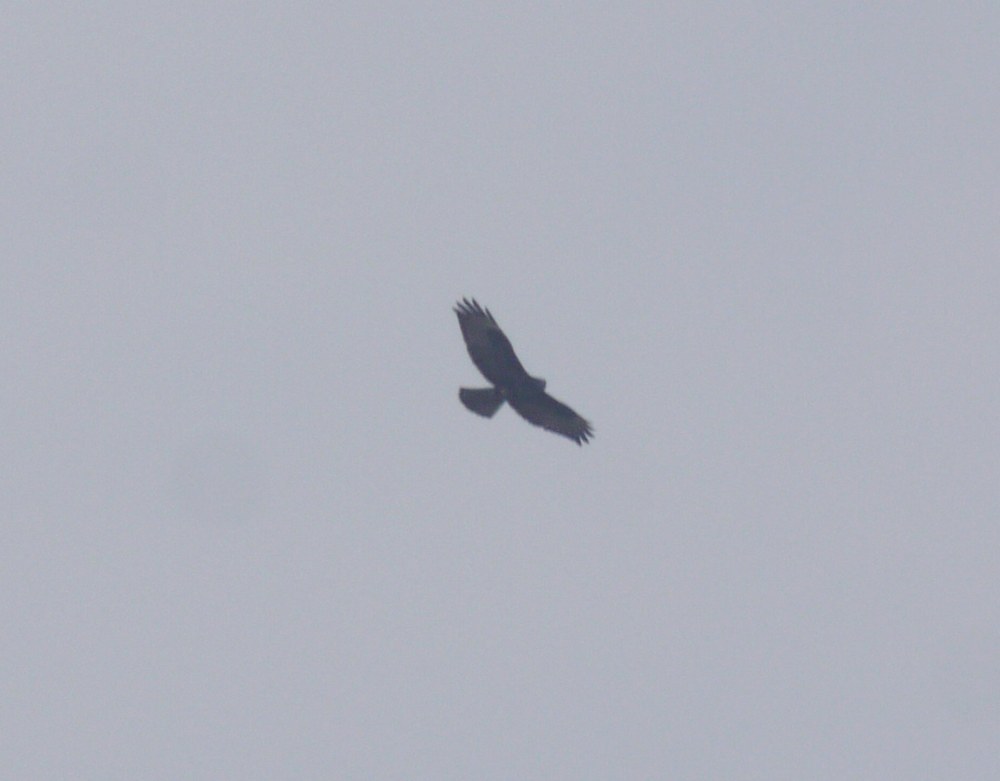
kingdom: Animalia
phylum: Chordata
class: Aves
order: Accipitriformes
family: Accipitridae
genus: Buteo
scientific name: Buteo buteo
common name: Common buzzard
